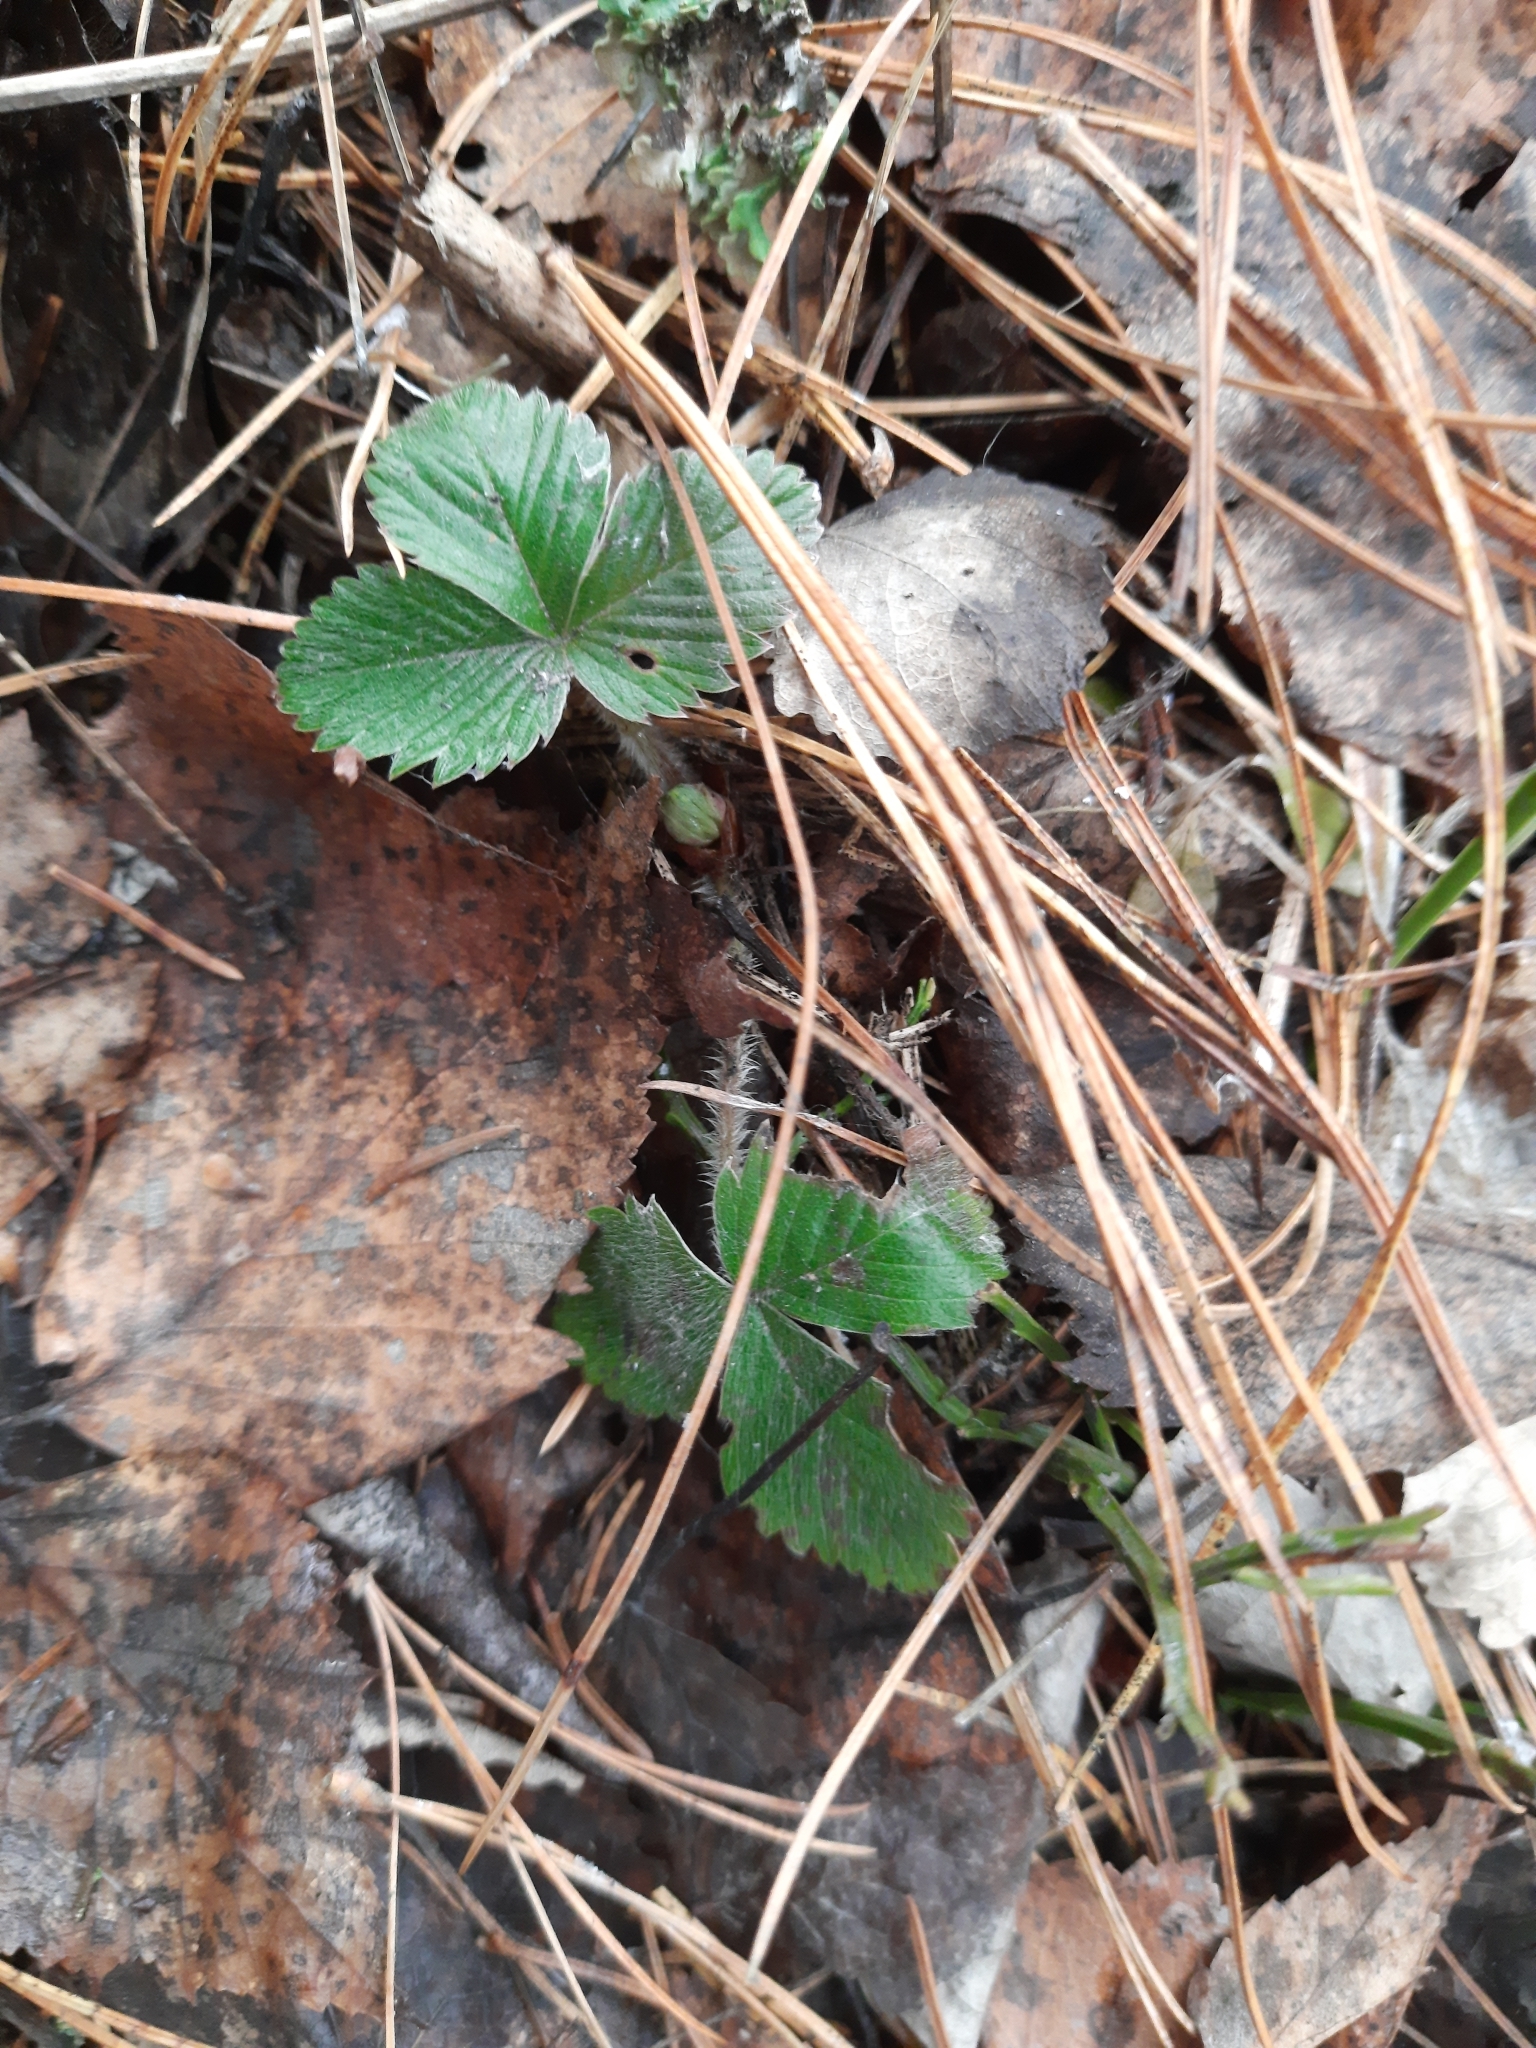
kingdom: Plantae
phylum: Tracheophyta
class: Magnoliopsida
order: Rosales
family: Rosaceae
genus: Fragaria
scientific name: Fragaria vesca
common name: Wild strawberry
